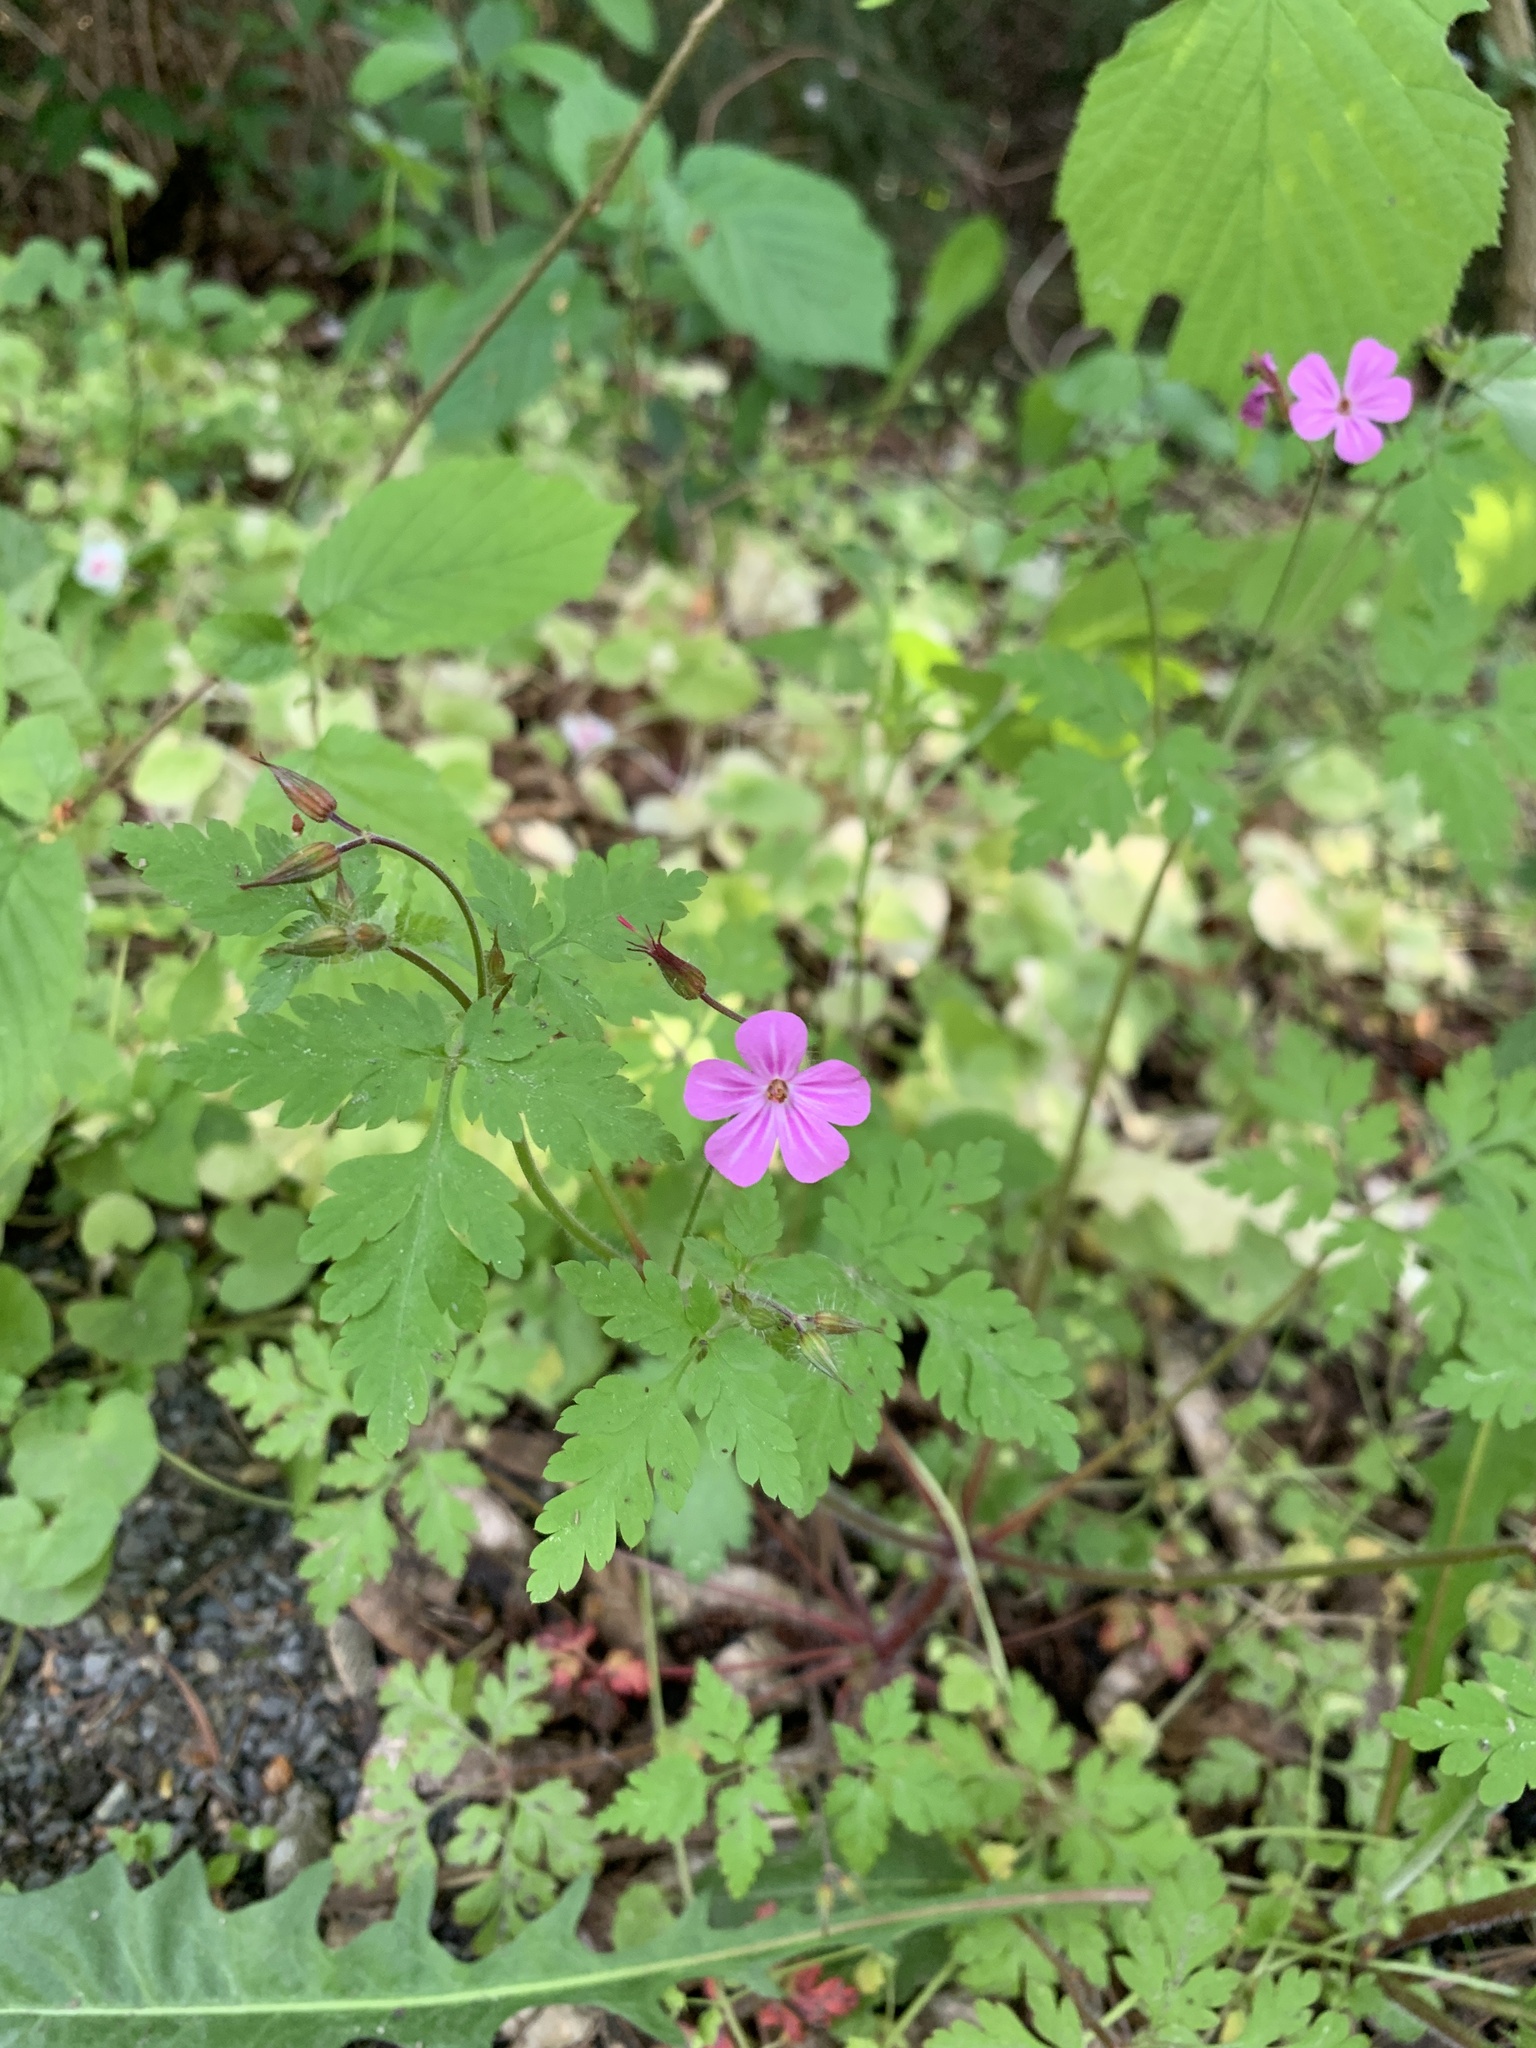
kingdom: Plantae
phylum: Tracheophyta
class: Magnoliopsida
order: Geraniales
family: Geraniaceae
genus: Geranium
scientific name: Geranium robertianum
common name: Herb-robert
